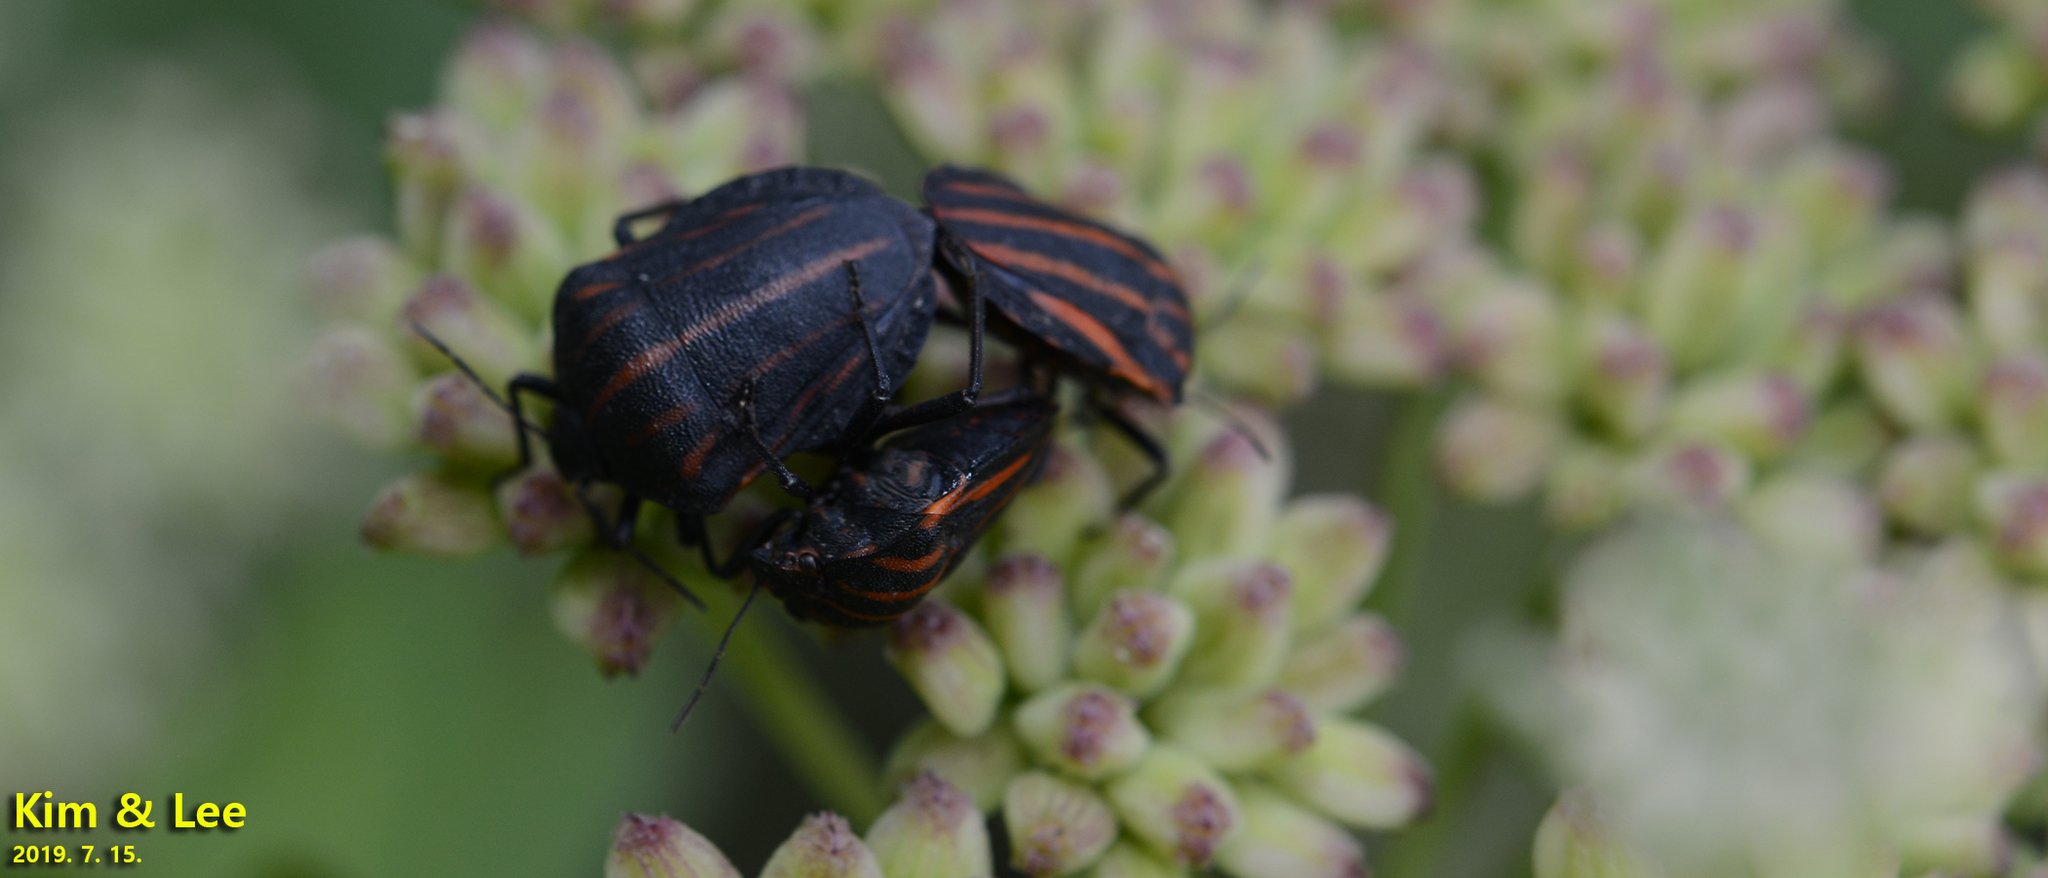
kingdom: Animalia
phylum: Arthropoda
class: Insecta
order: Hemiptera
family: Pentatomidae
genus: Graphosoma
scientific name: Graphosoma rubrolineatum
